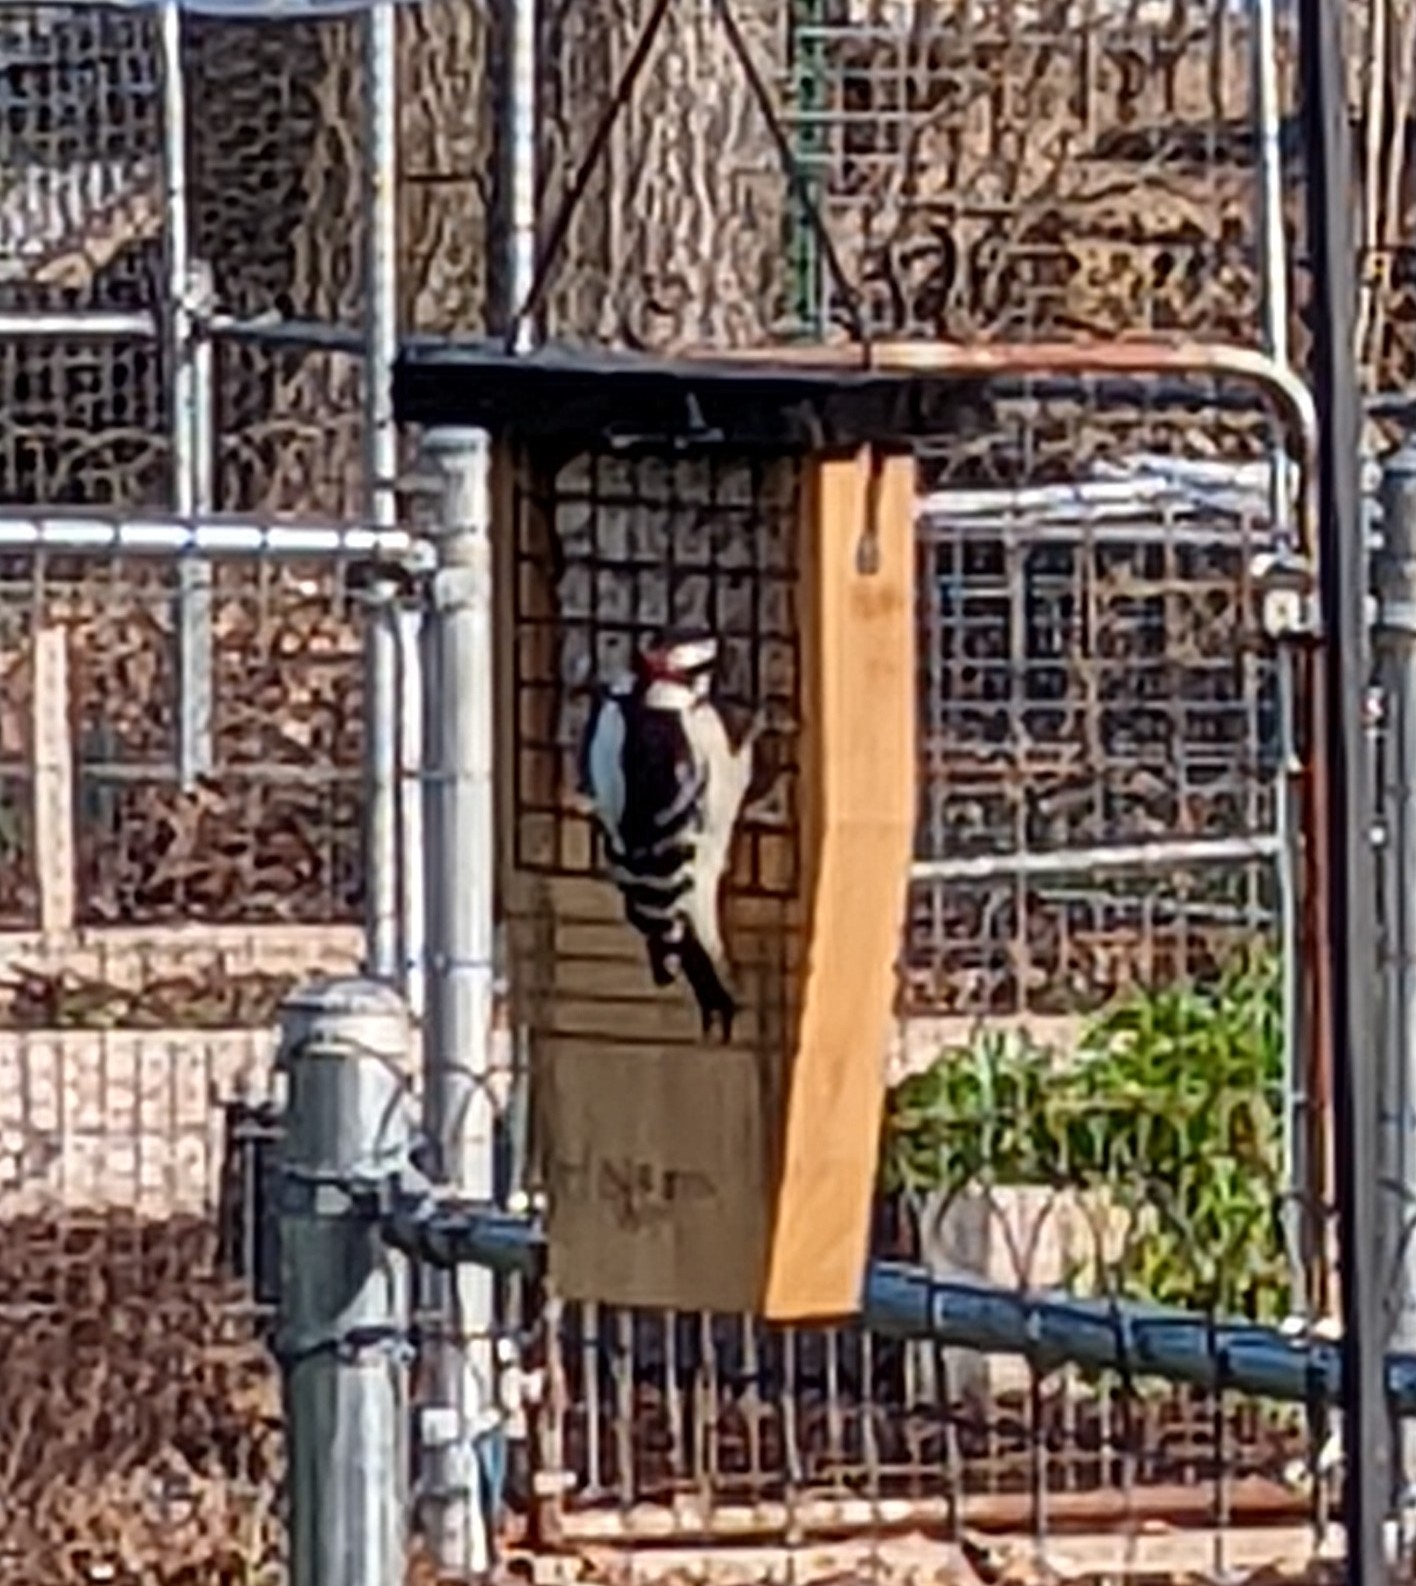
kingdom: Animalia
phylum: Chordata
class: Aves
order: Piciformes
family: Picidae
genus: Dryobates
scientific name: Dryobates pubescens
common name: Downy woodpecker
